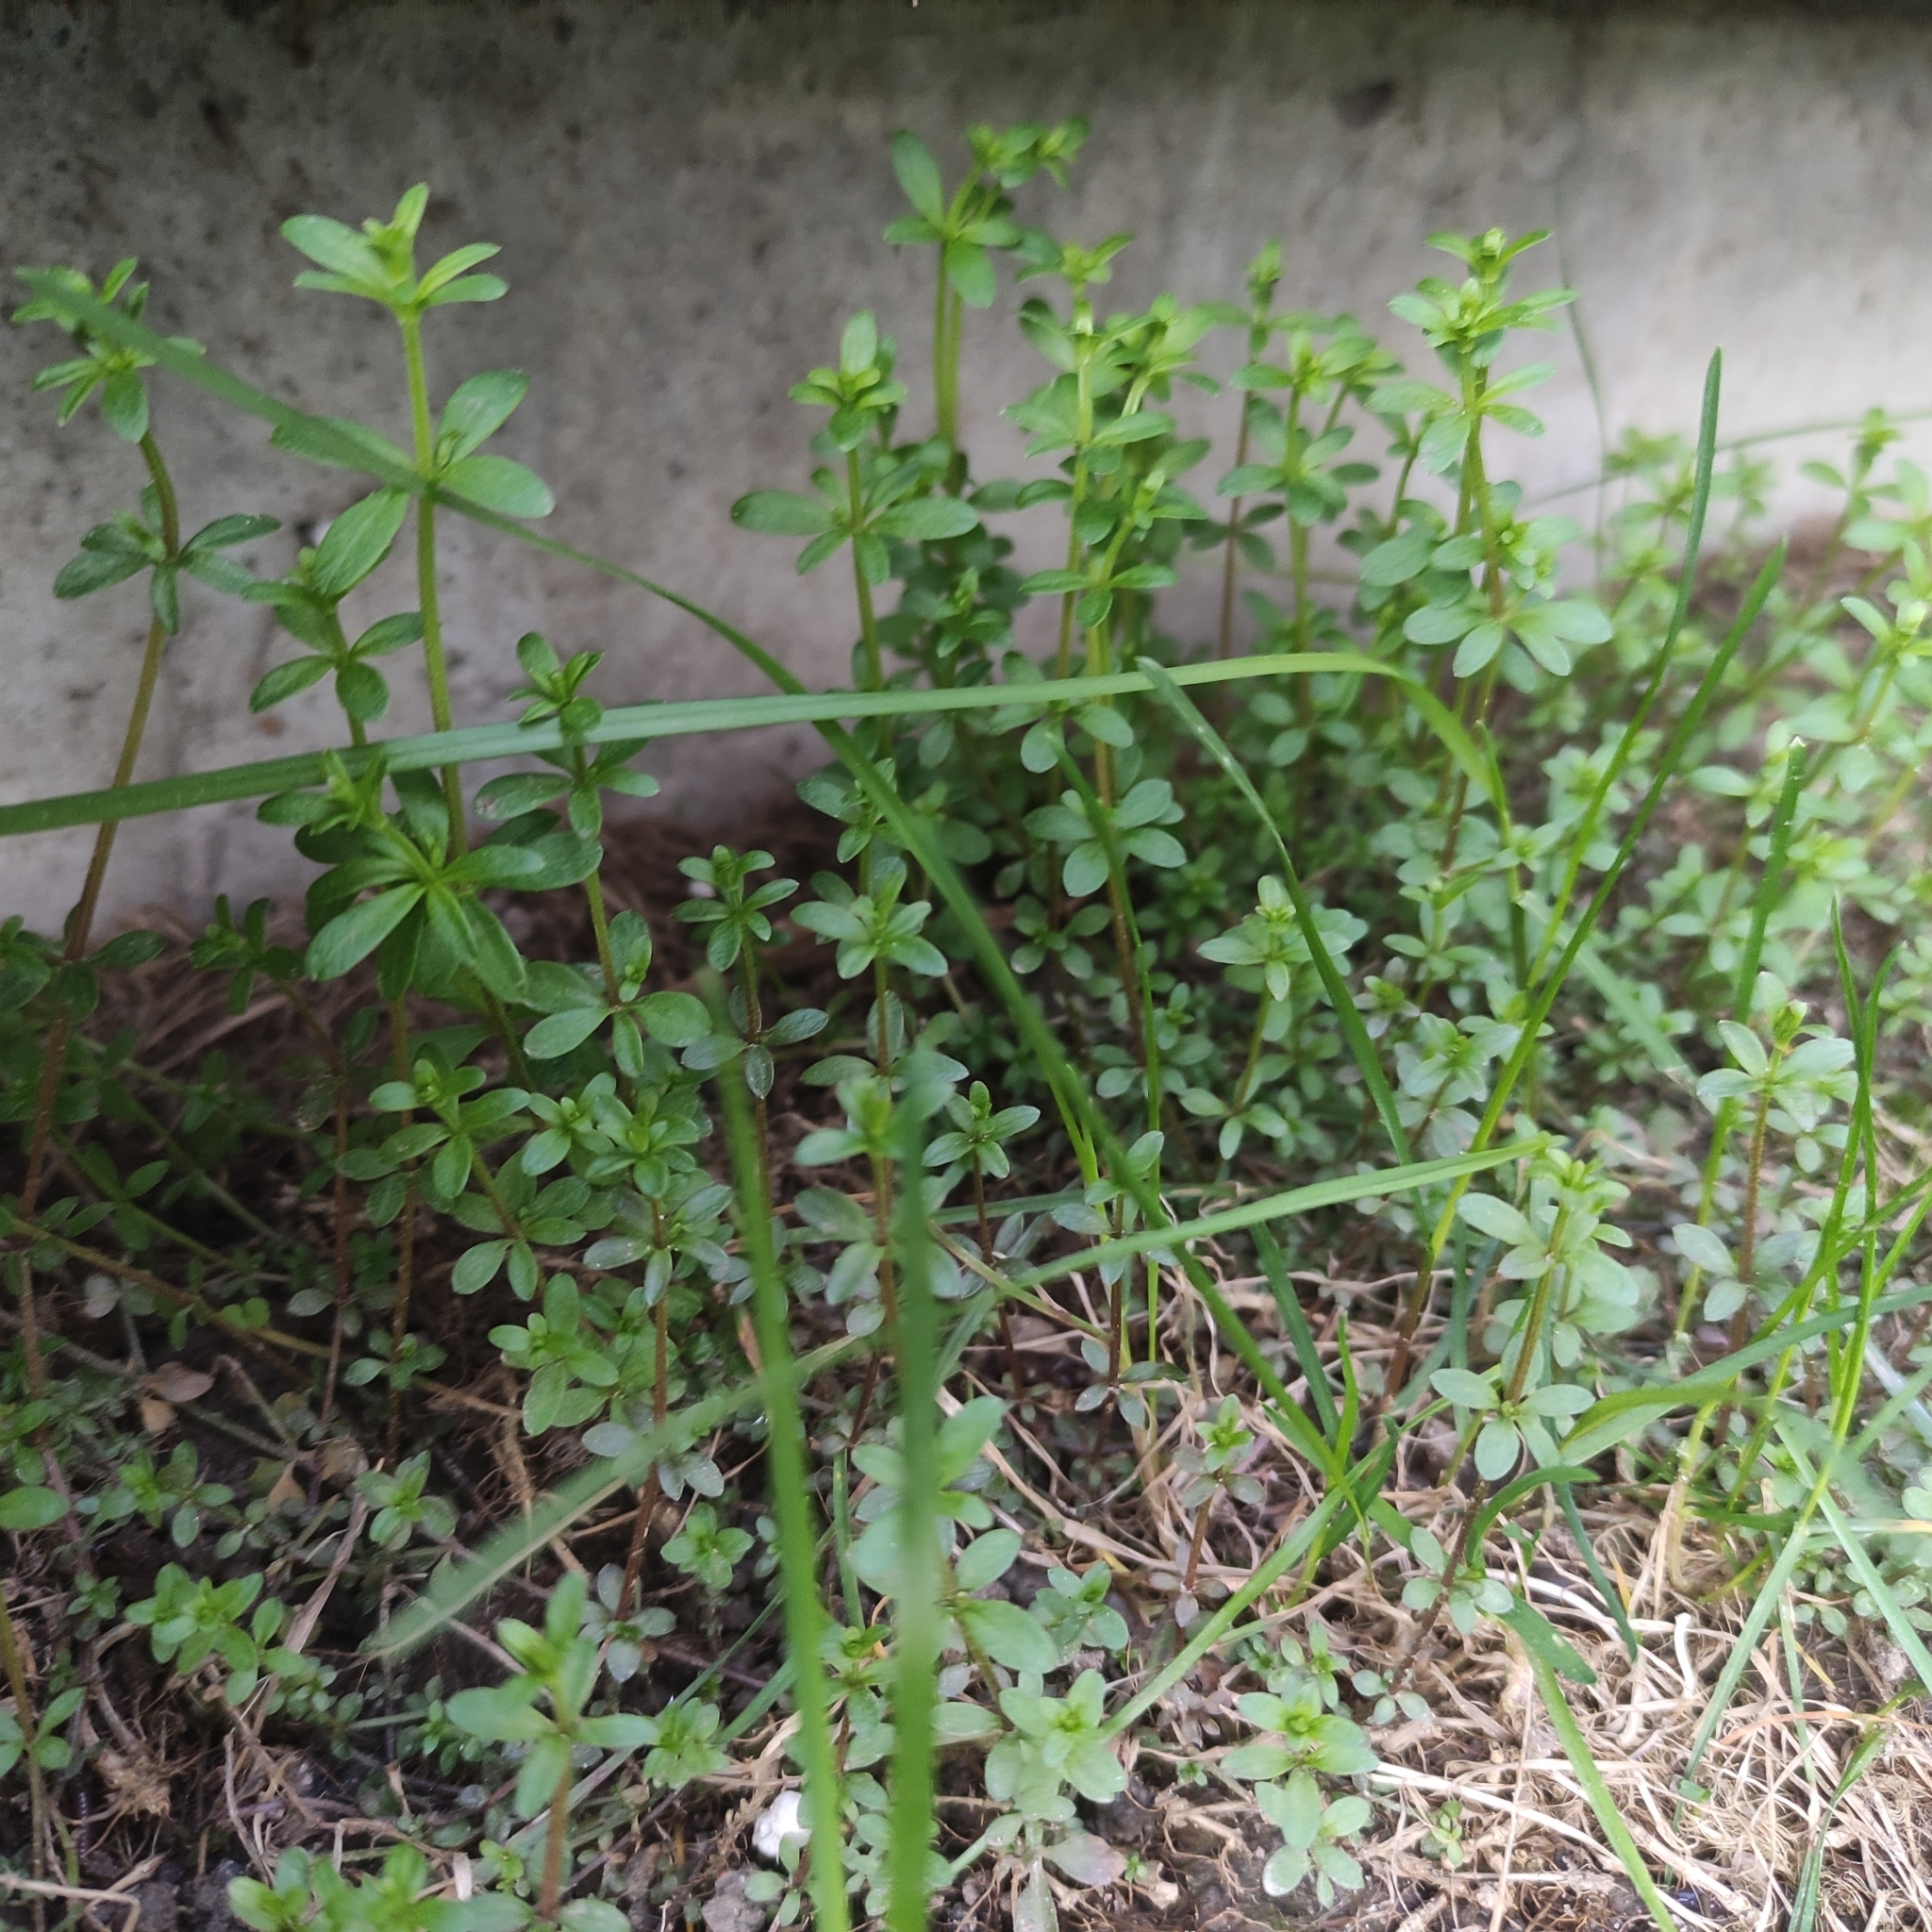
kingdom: Plantae
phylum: Tracheophyta
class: Magnoliopsida
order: Gentianales
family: Rubiaceae
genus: Galium
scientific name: Galium palustre
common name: Common marsh-bedstraw
